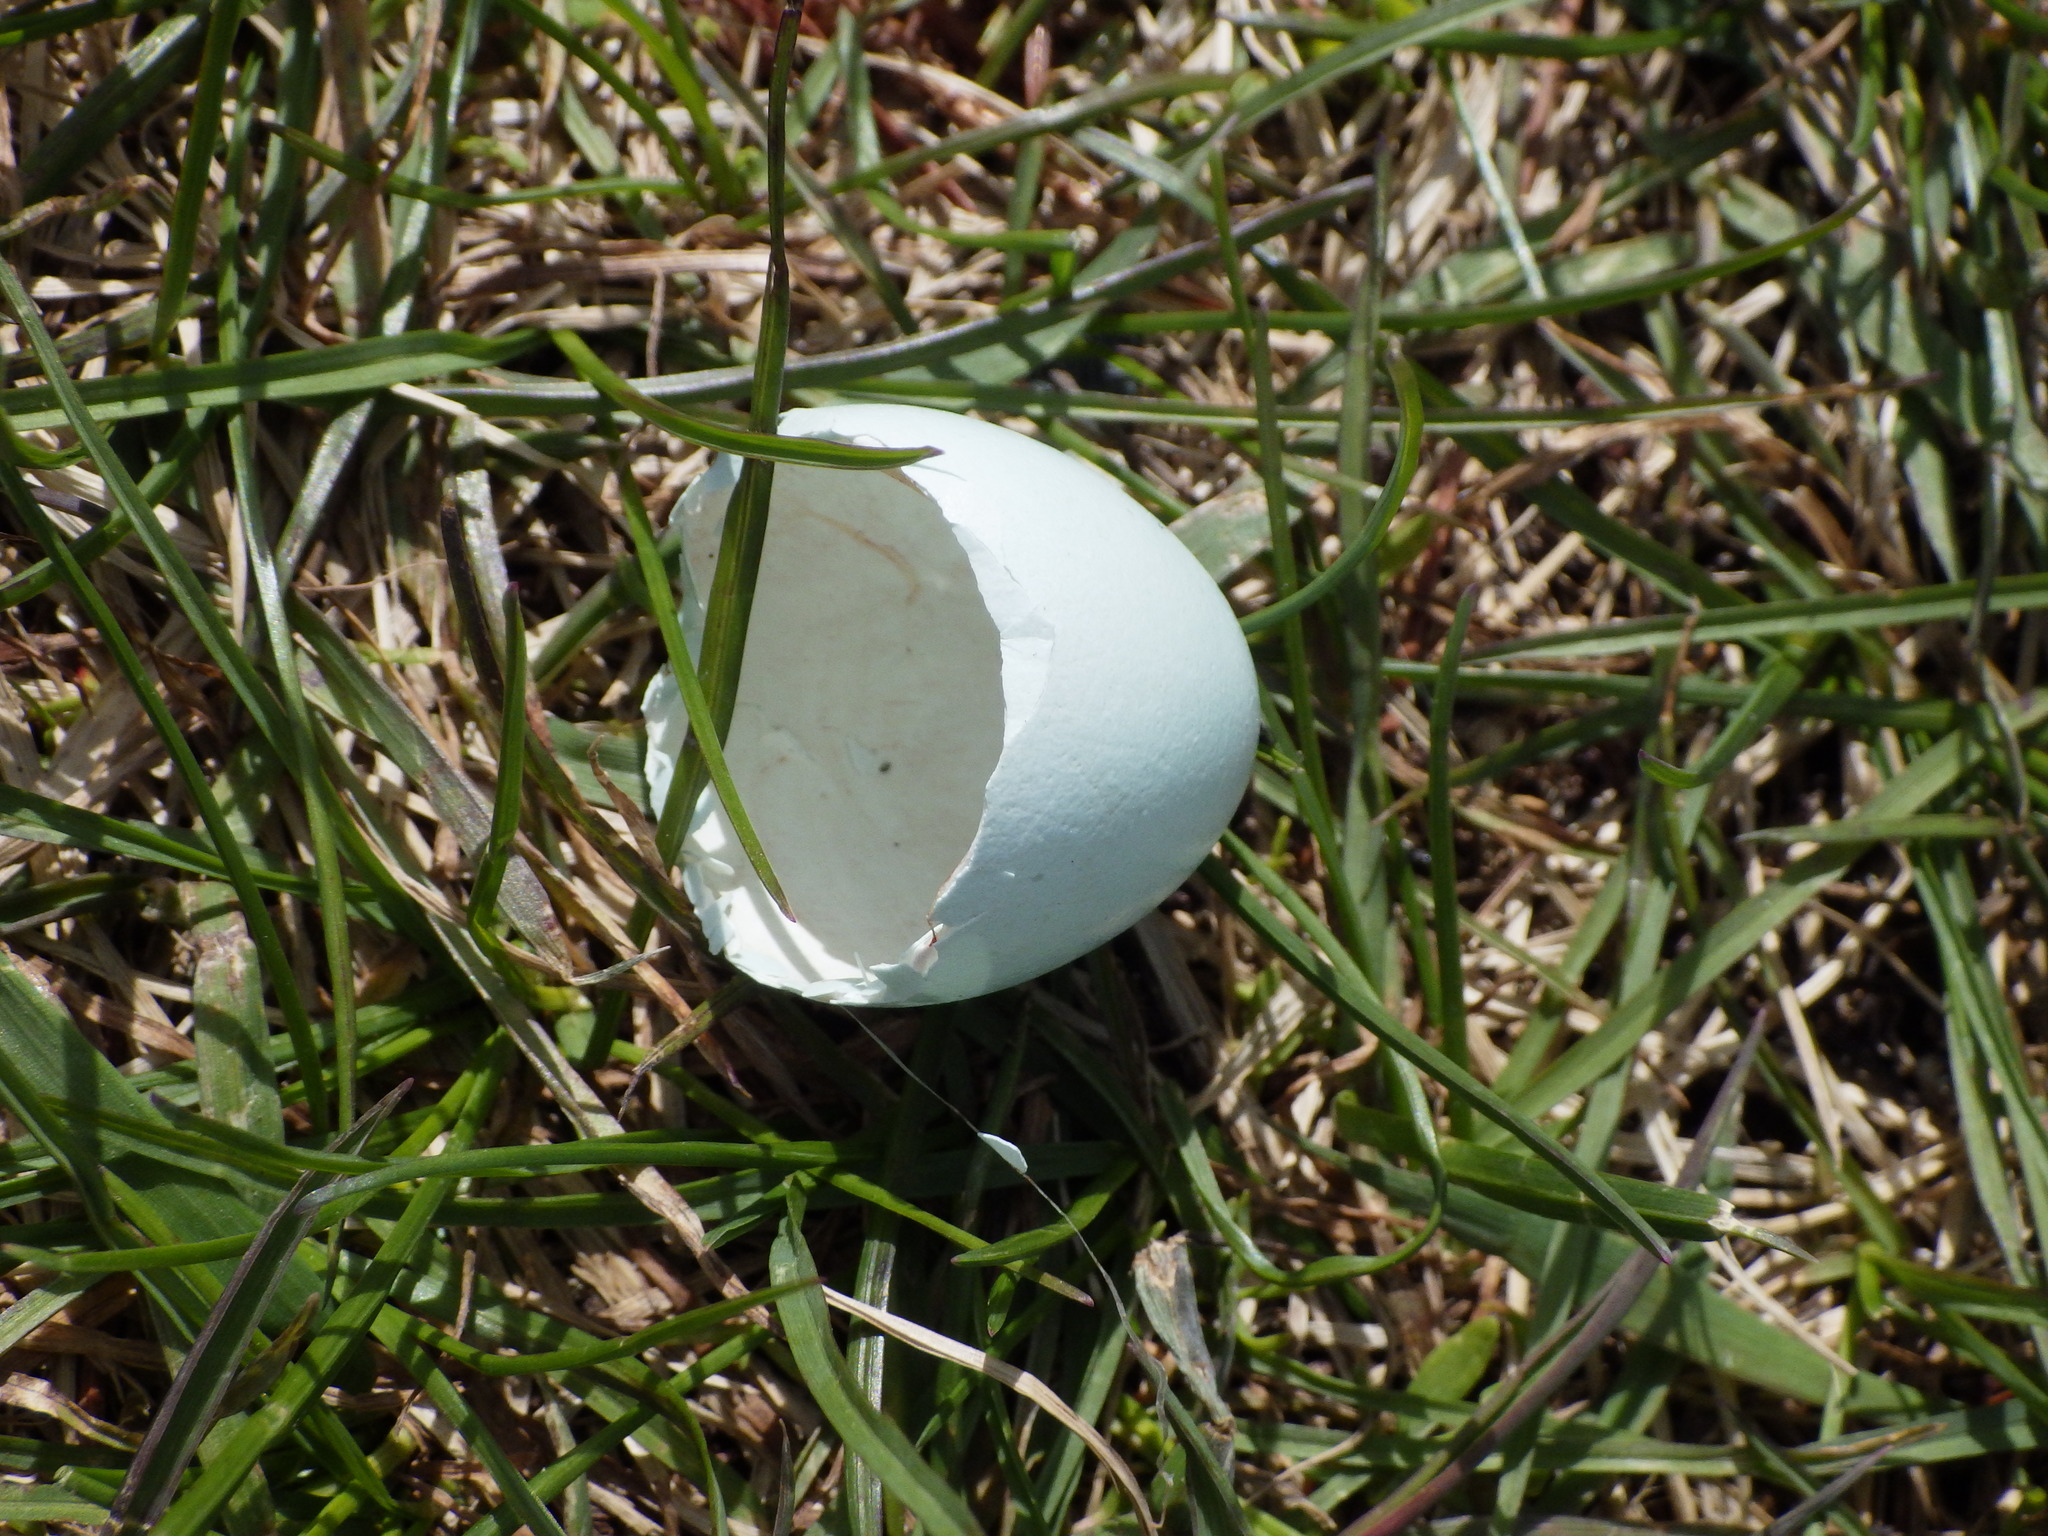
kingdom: Animalia
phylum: Chordata
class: Aves
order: Passeriformes
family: Turdidae
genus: Turdus
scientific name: Turdus migratorius
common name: American robin
